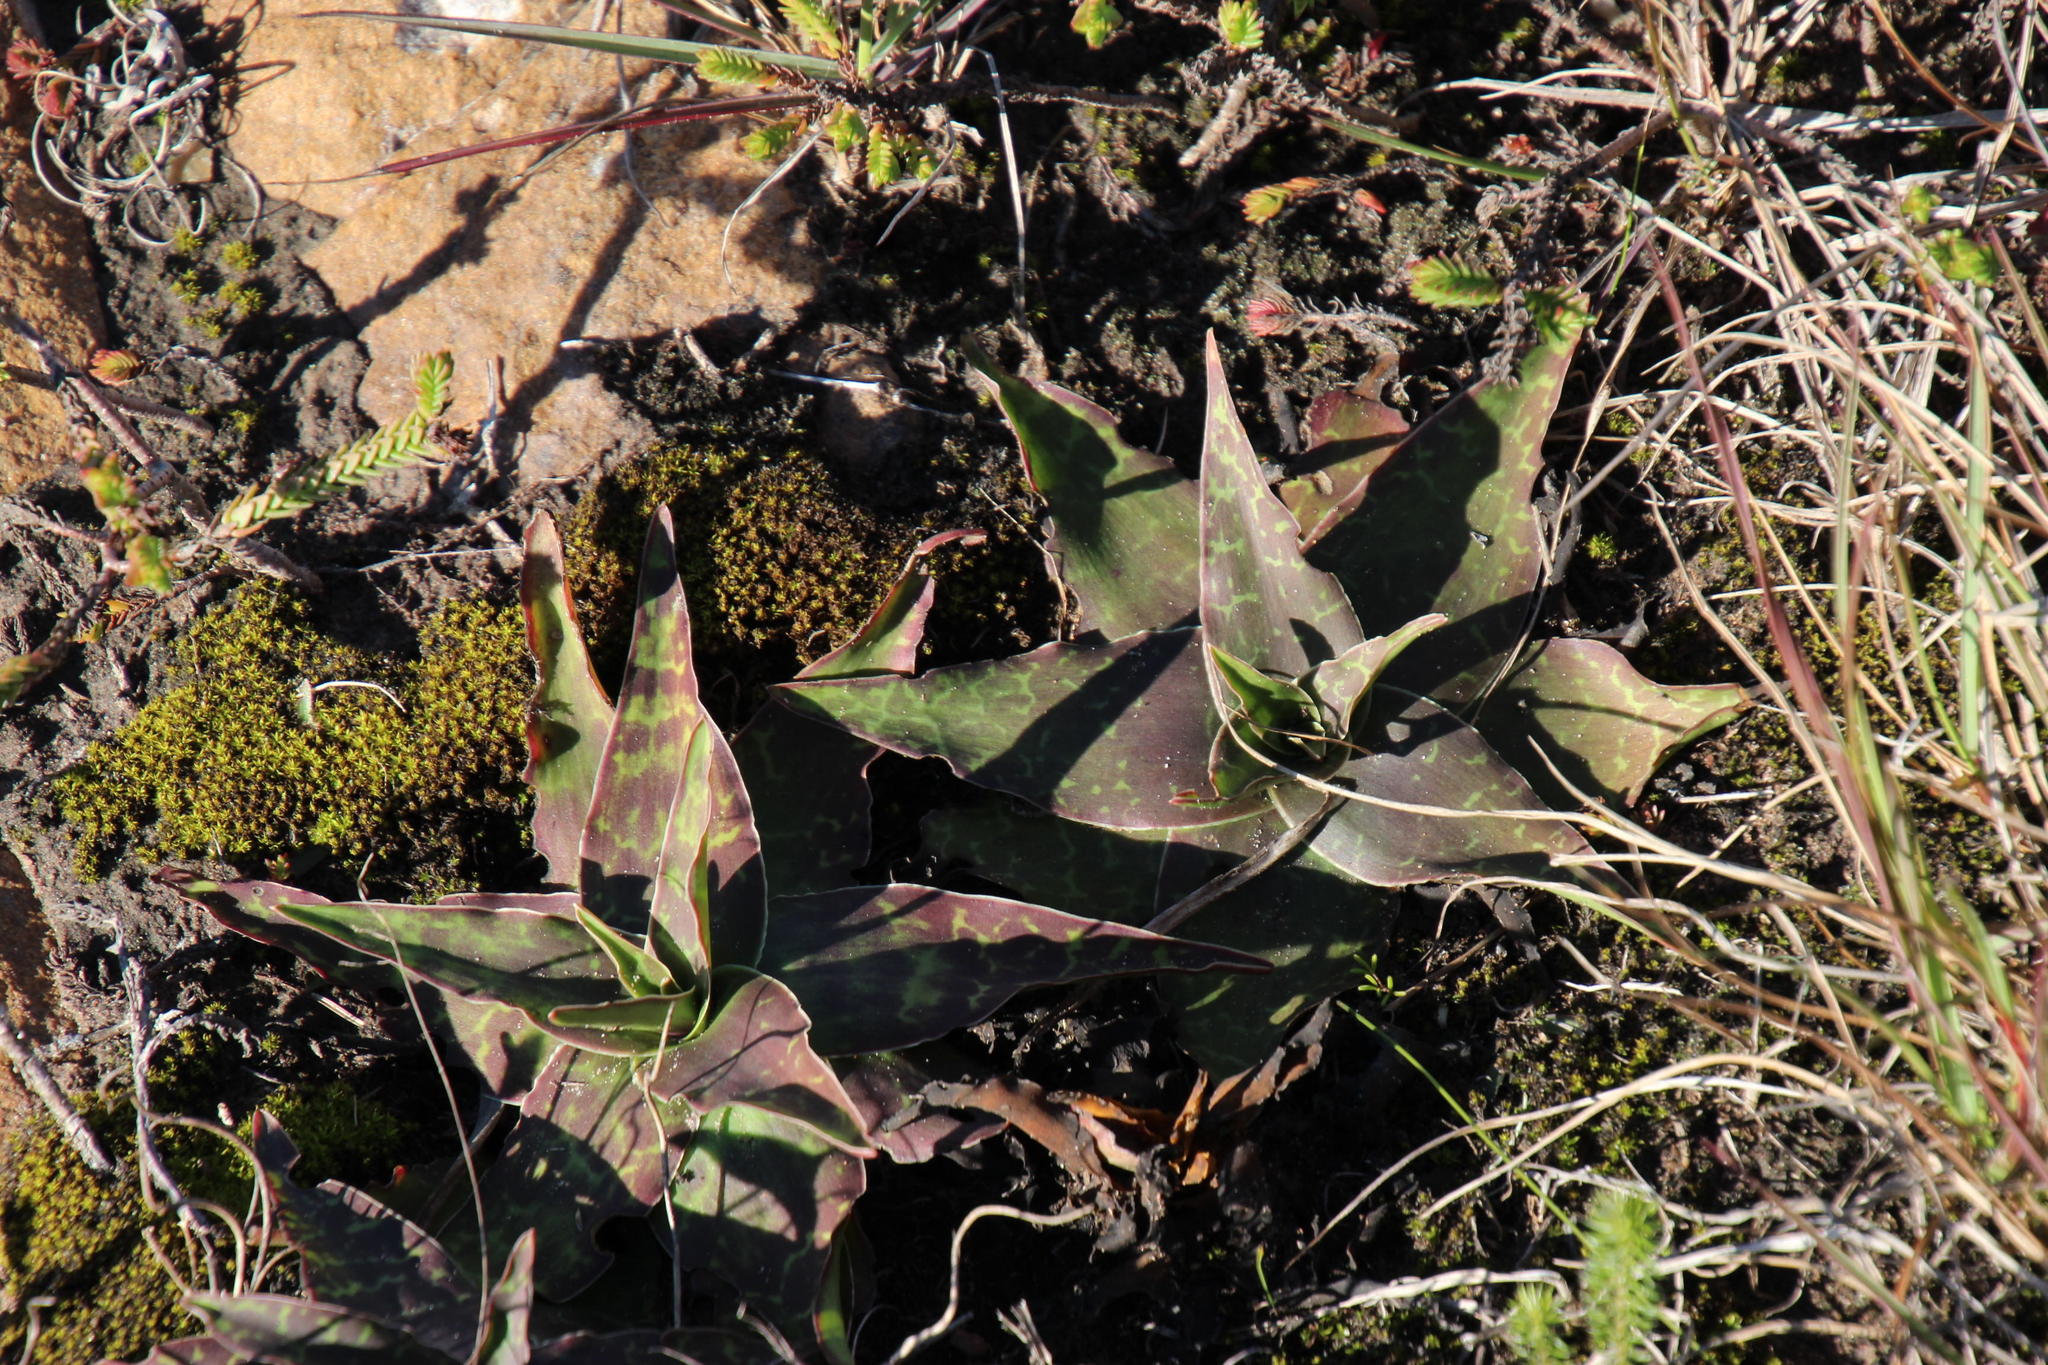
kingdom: Plantae
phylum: Tracheophyta
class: Liliopsida
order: Asparagales
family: Asparagaceae
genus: Ledebouria
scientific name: Ledebouria revoluta
